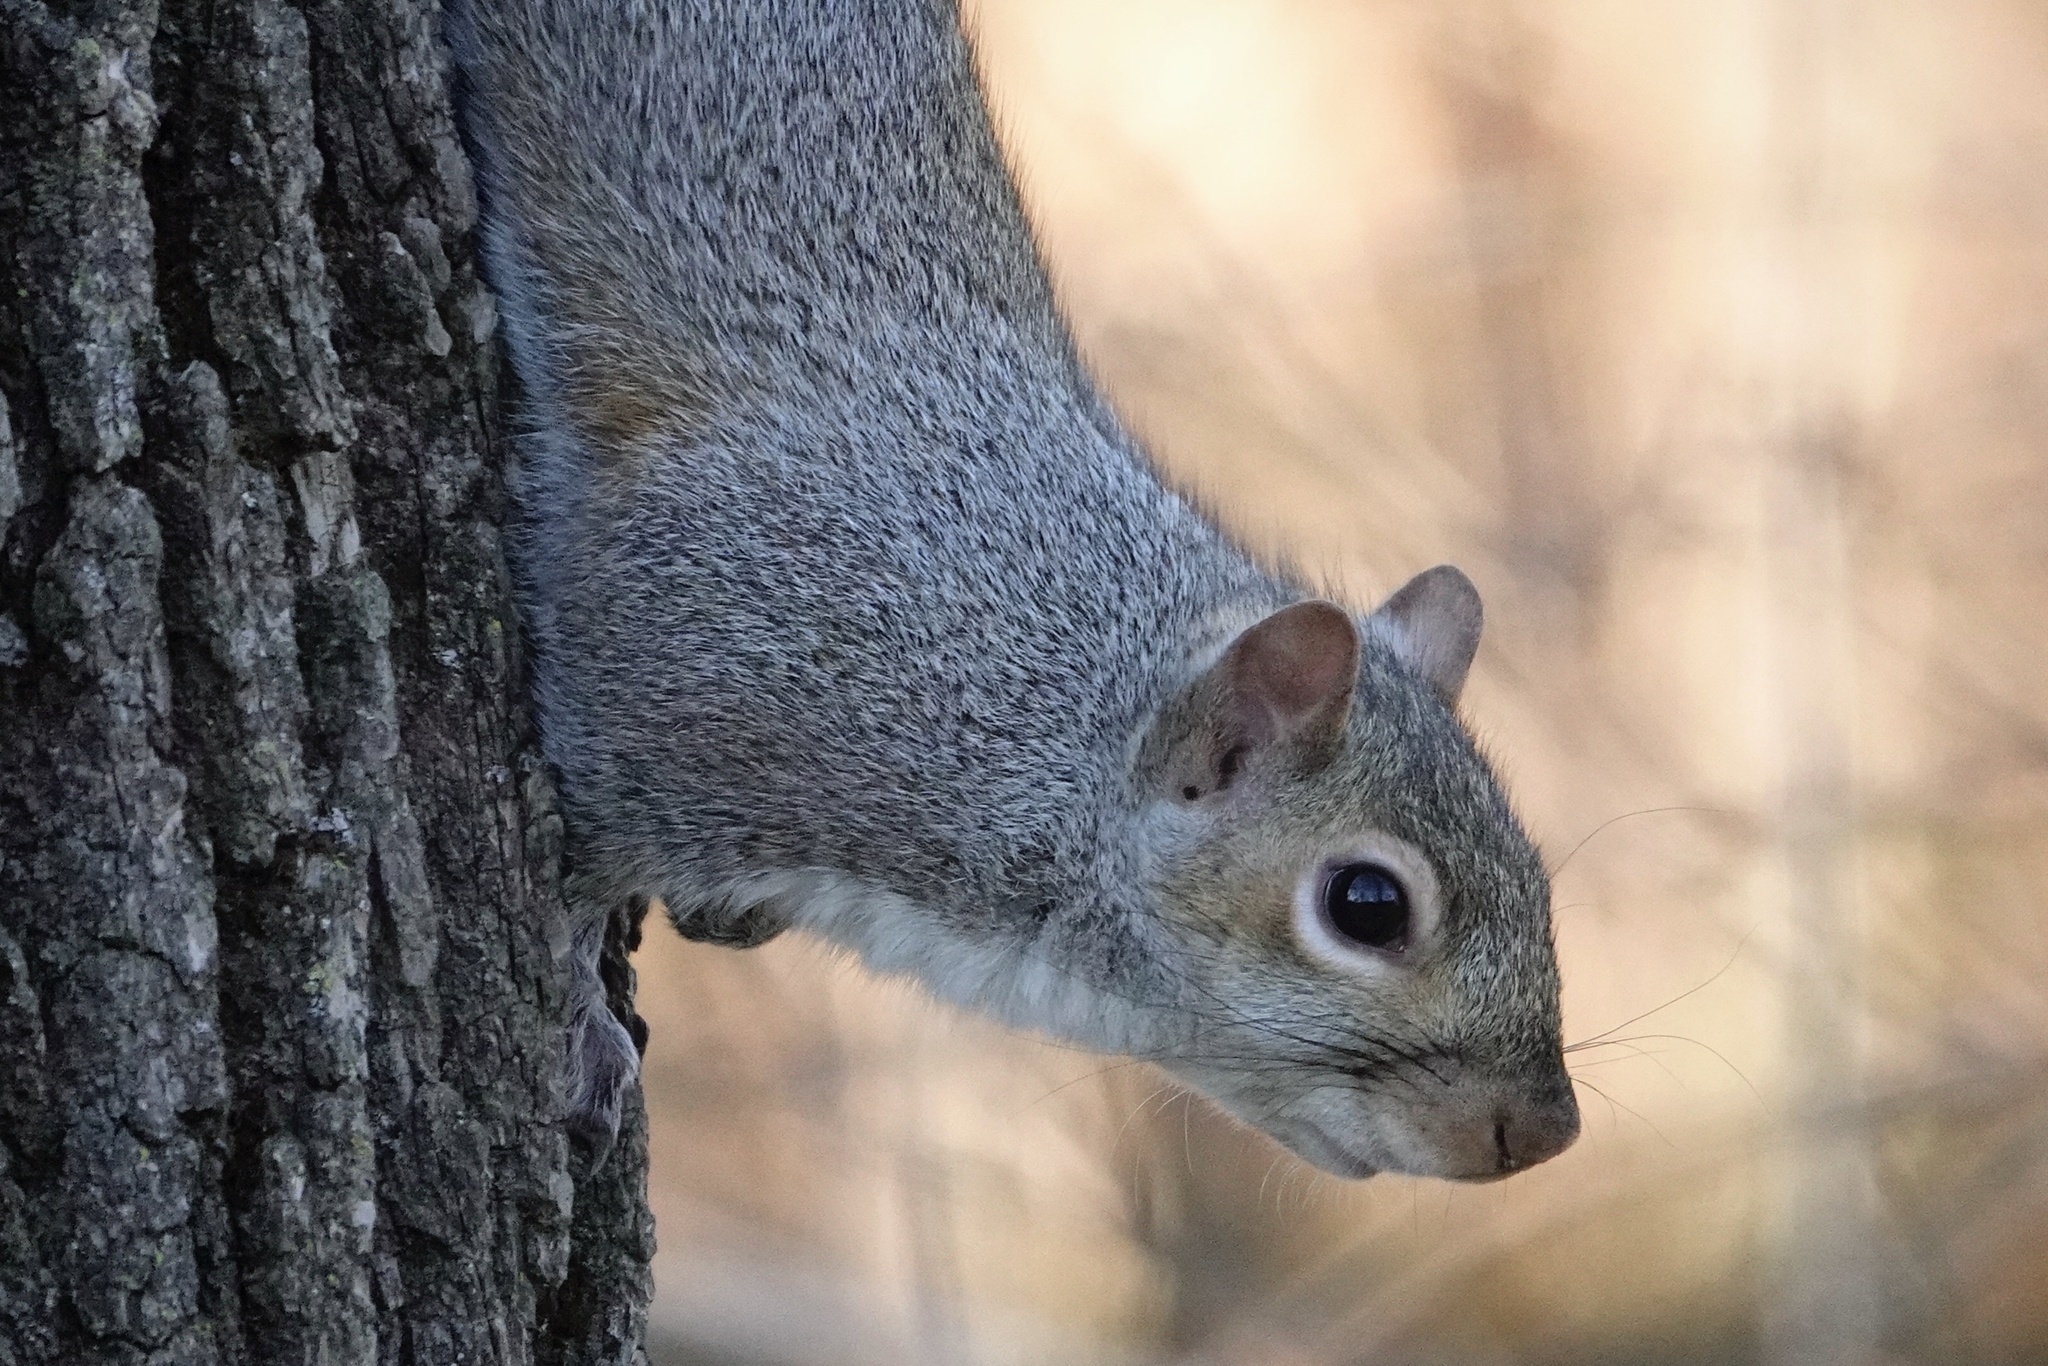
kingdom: Animalia
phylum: Chordata
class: Mammalia
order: Rodentia
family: Sciuridae
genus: Sciurus
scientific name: Sciurus carolinensis
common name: Eastern gray squirrel
